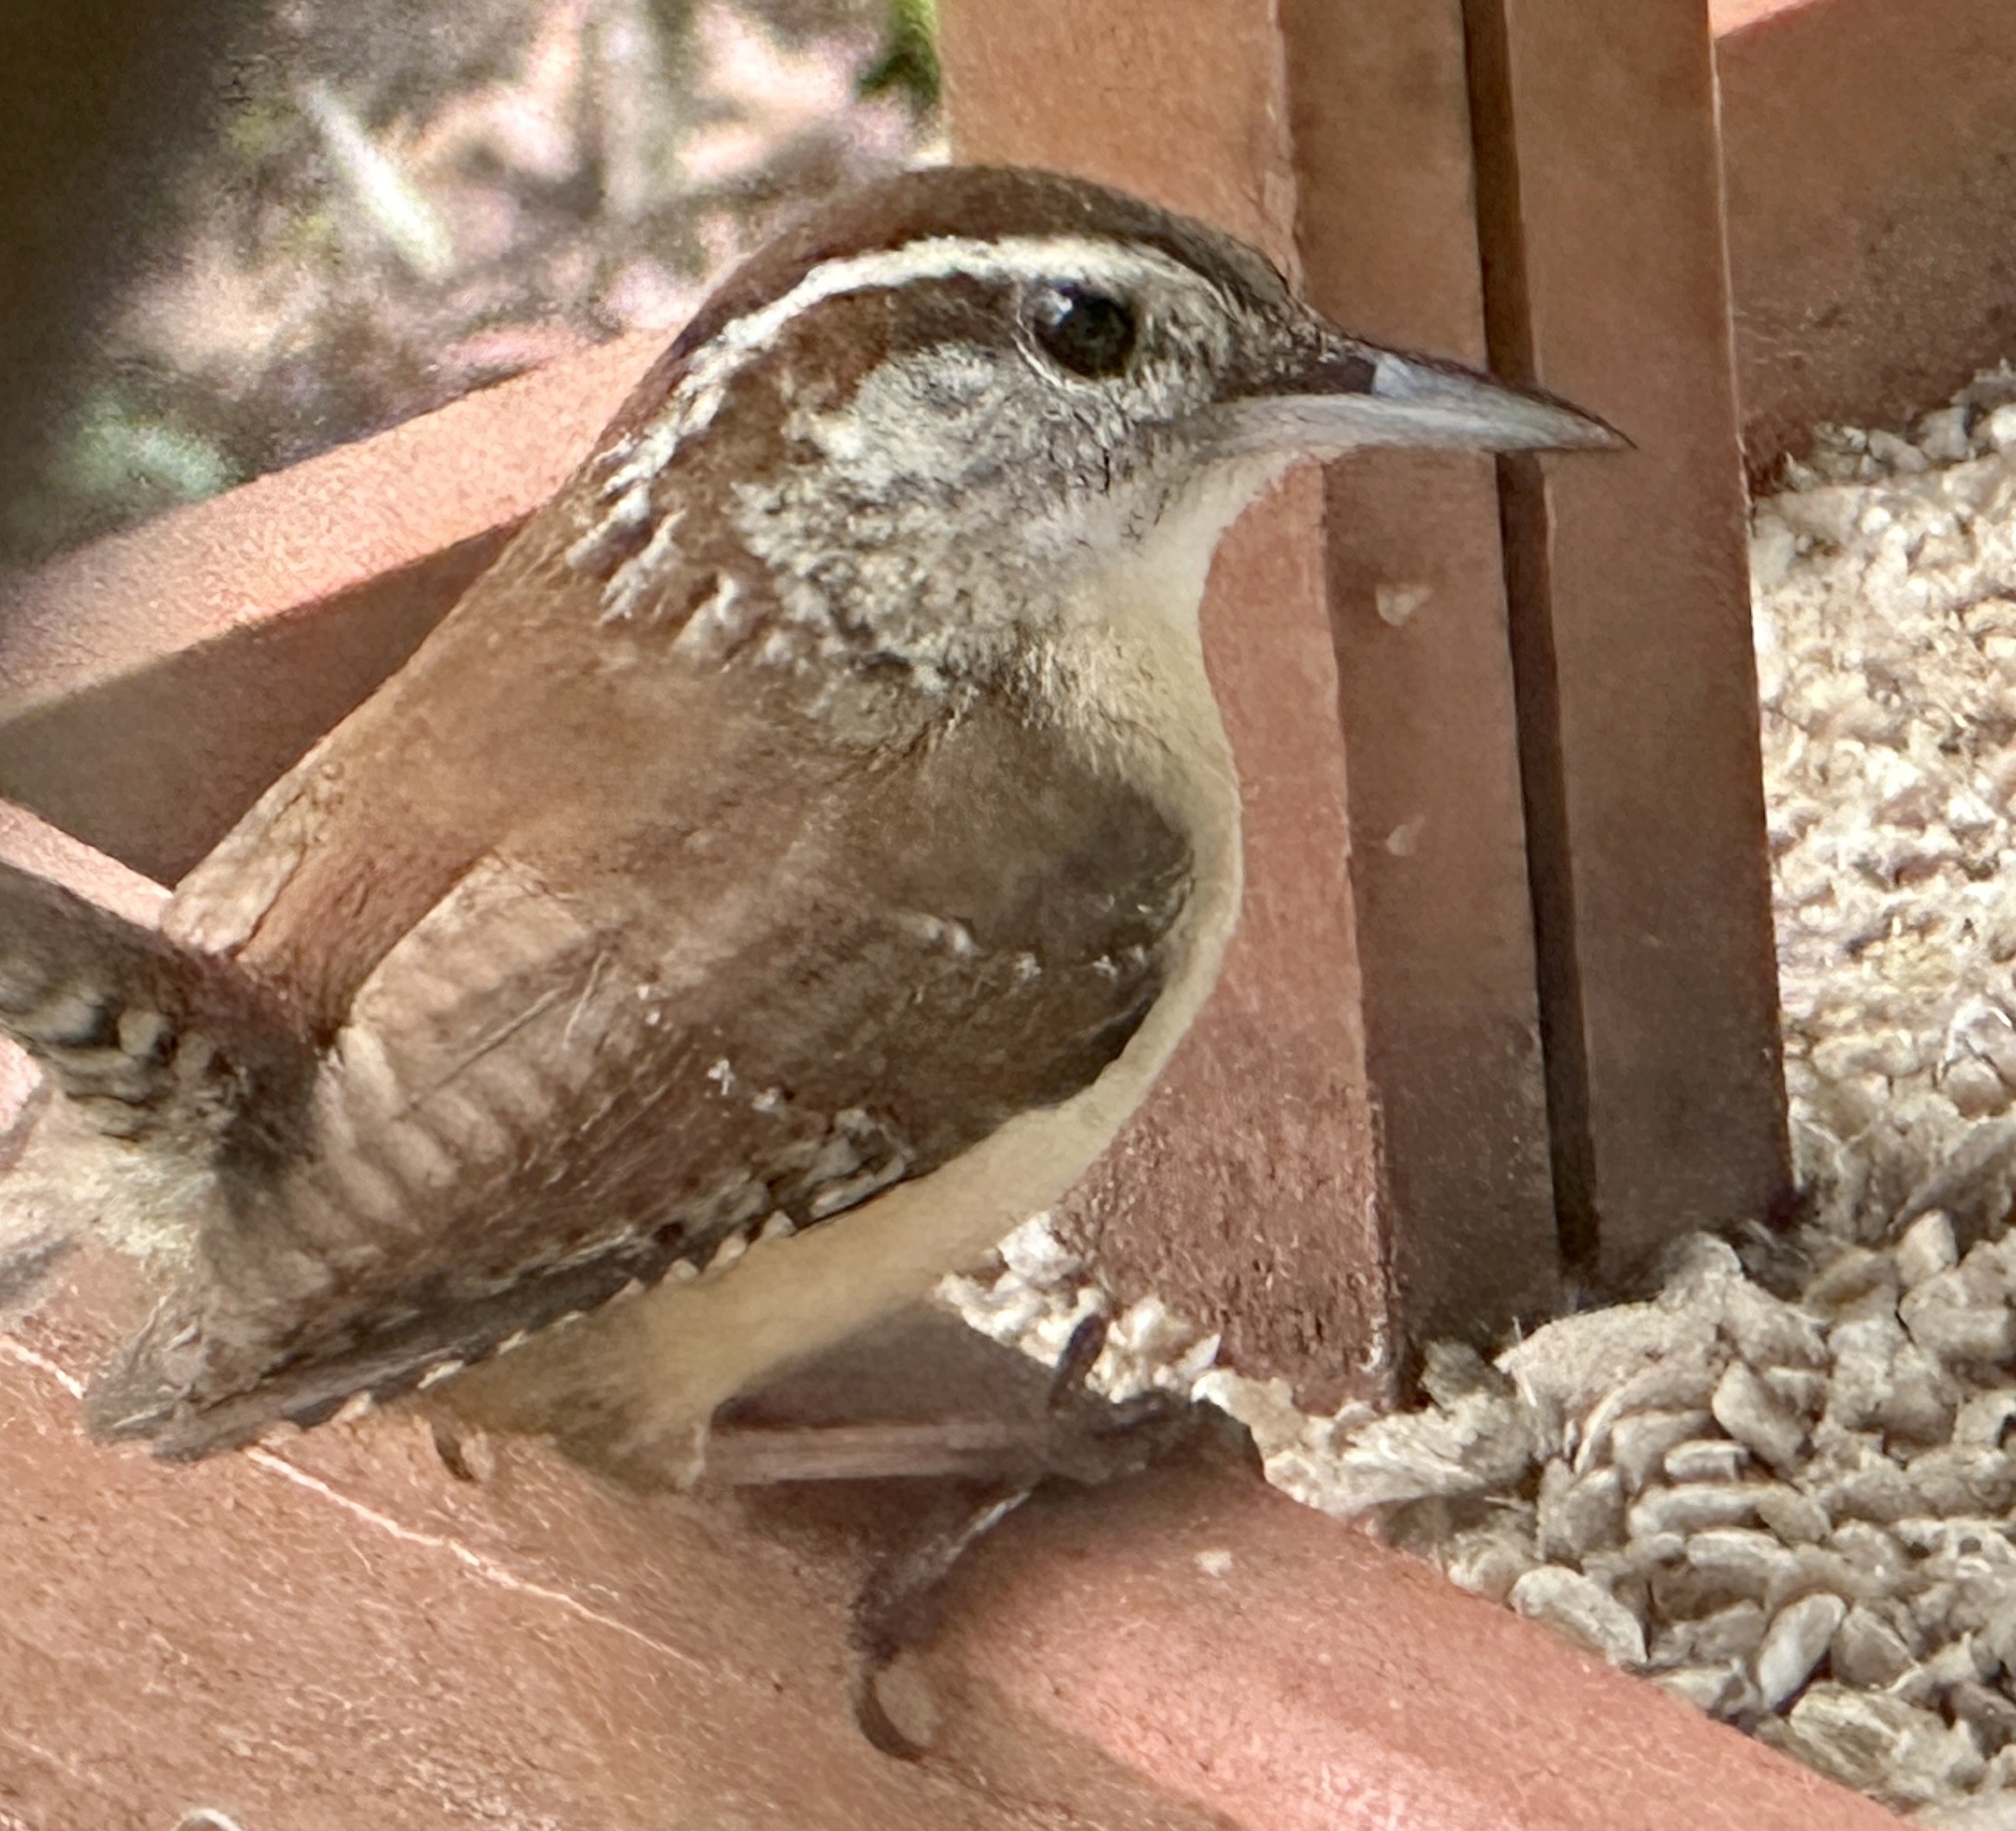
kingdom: Animalia
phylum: Chordata
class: Aves
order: Passeriformes
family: Troglodytidae
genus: Thryothorus
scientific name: Thryothorus ludovicianus
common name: Carolina wren
